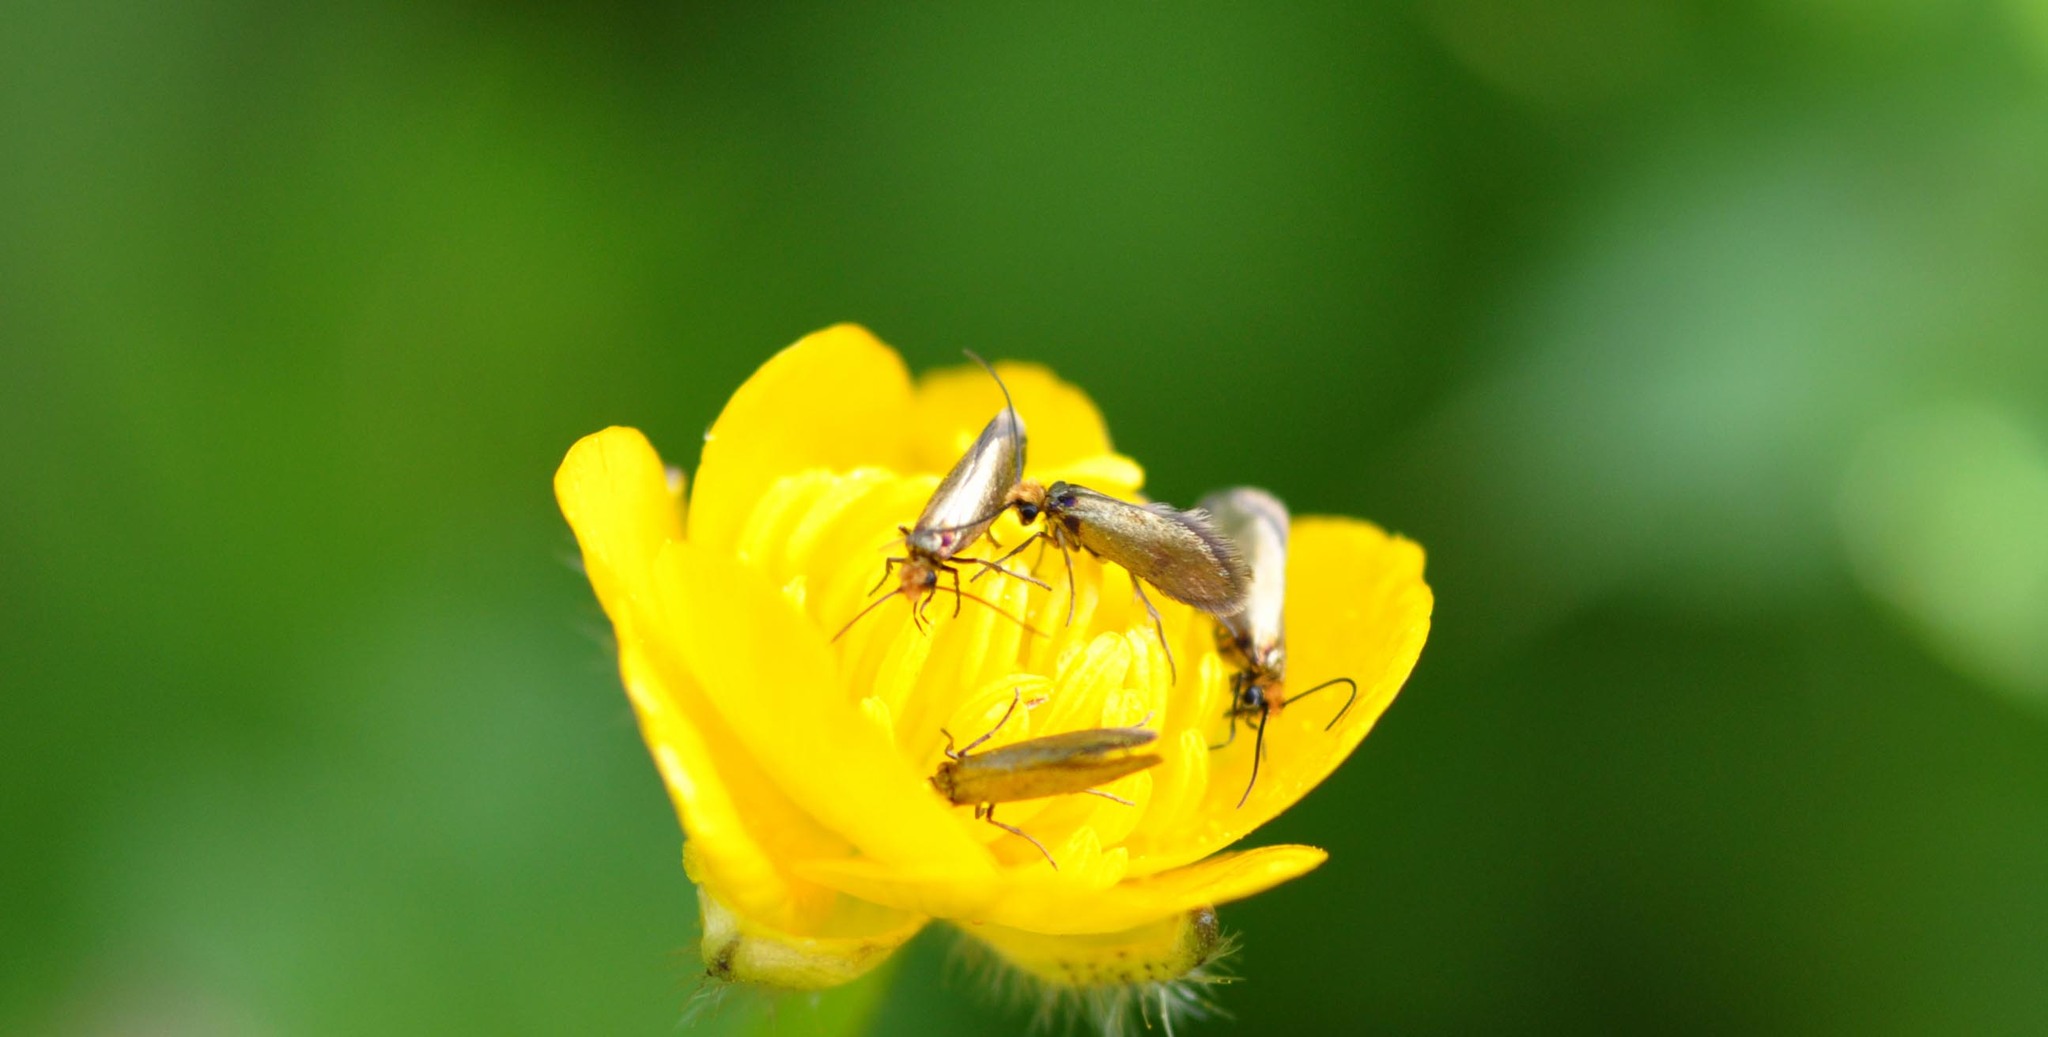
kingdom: Animalia
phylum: Arthropoda
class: Insecta
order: Lepidoptera
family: Micropterigidae
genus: Micropterix
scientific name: Micropterix calthella
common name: Plain gold
